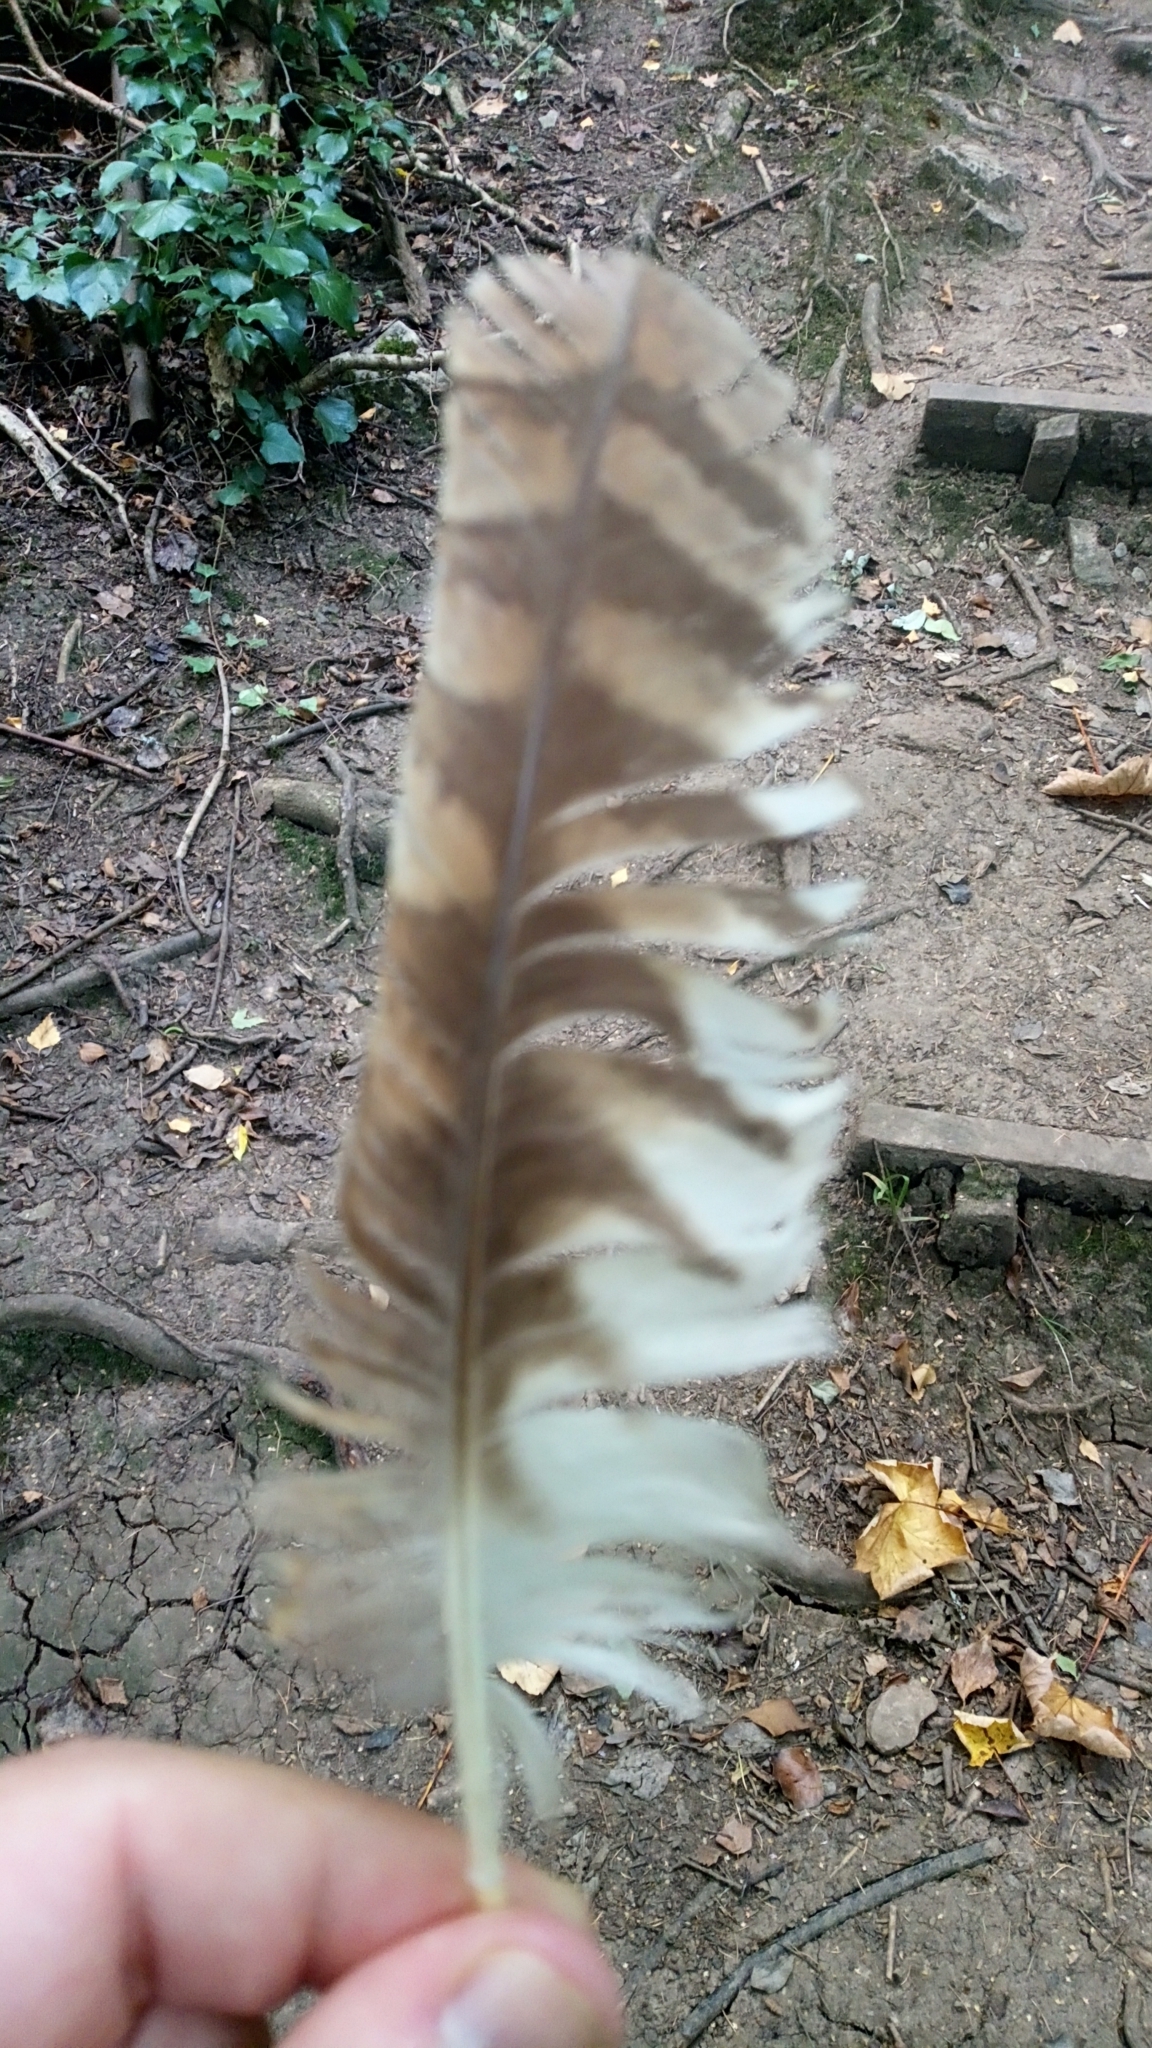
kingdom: Animalia
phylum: Chordata
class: Aves
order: Strigiformes
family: Strigidae
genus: Strix
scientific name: Strix aluco
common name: Tawny owl
